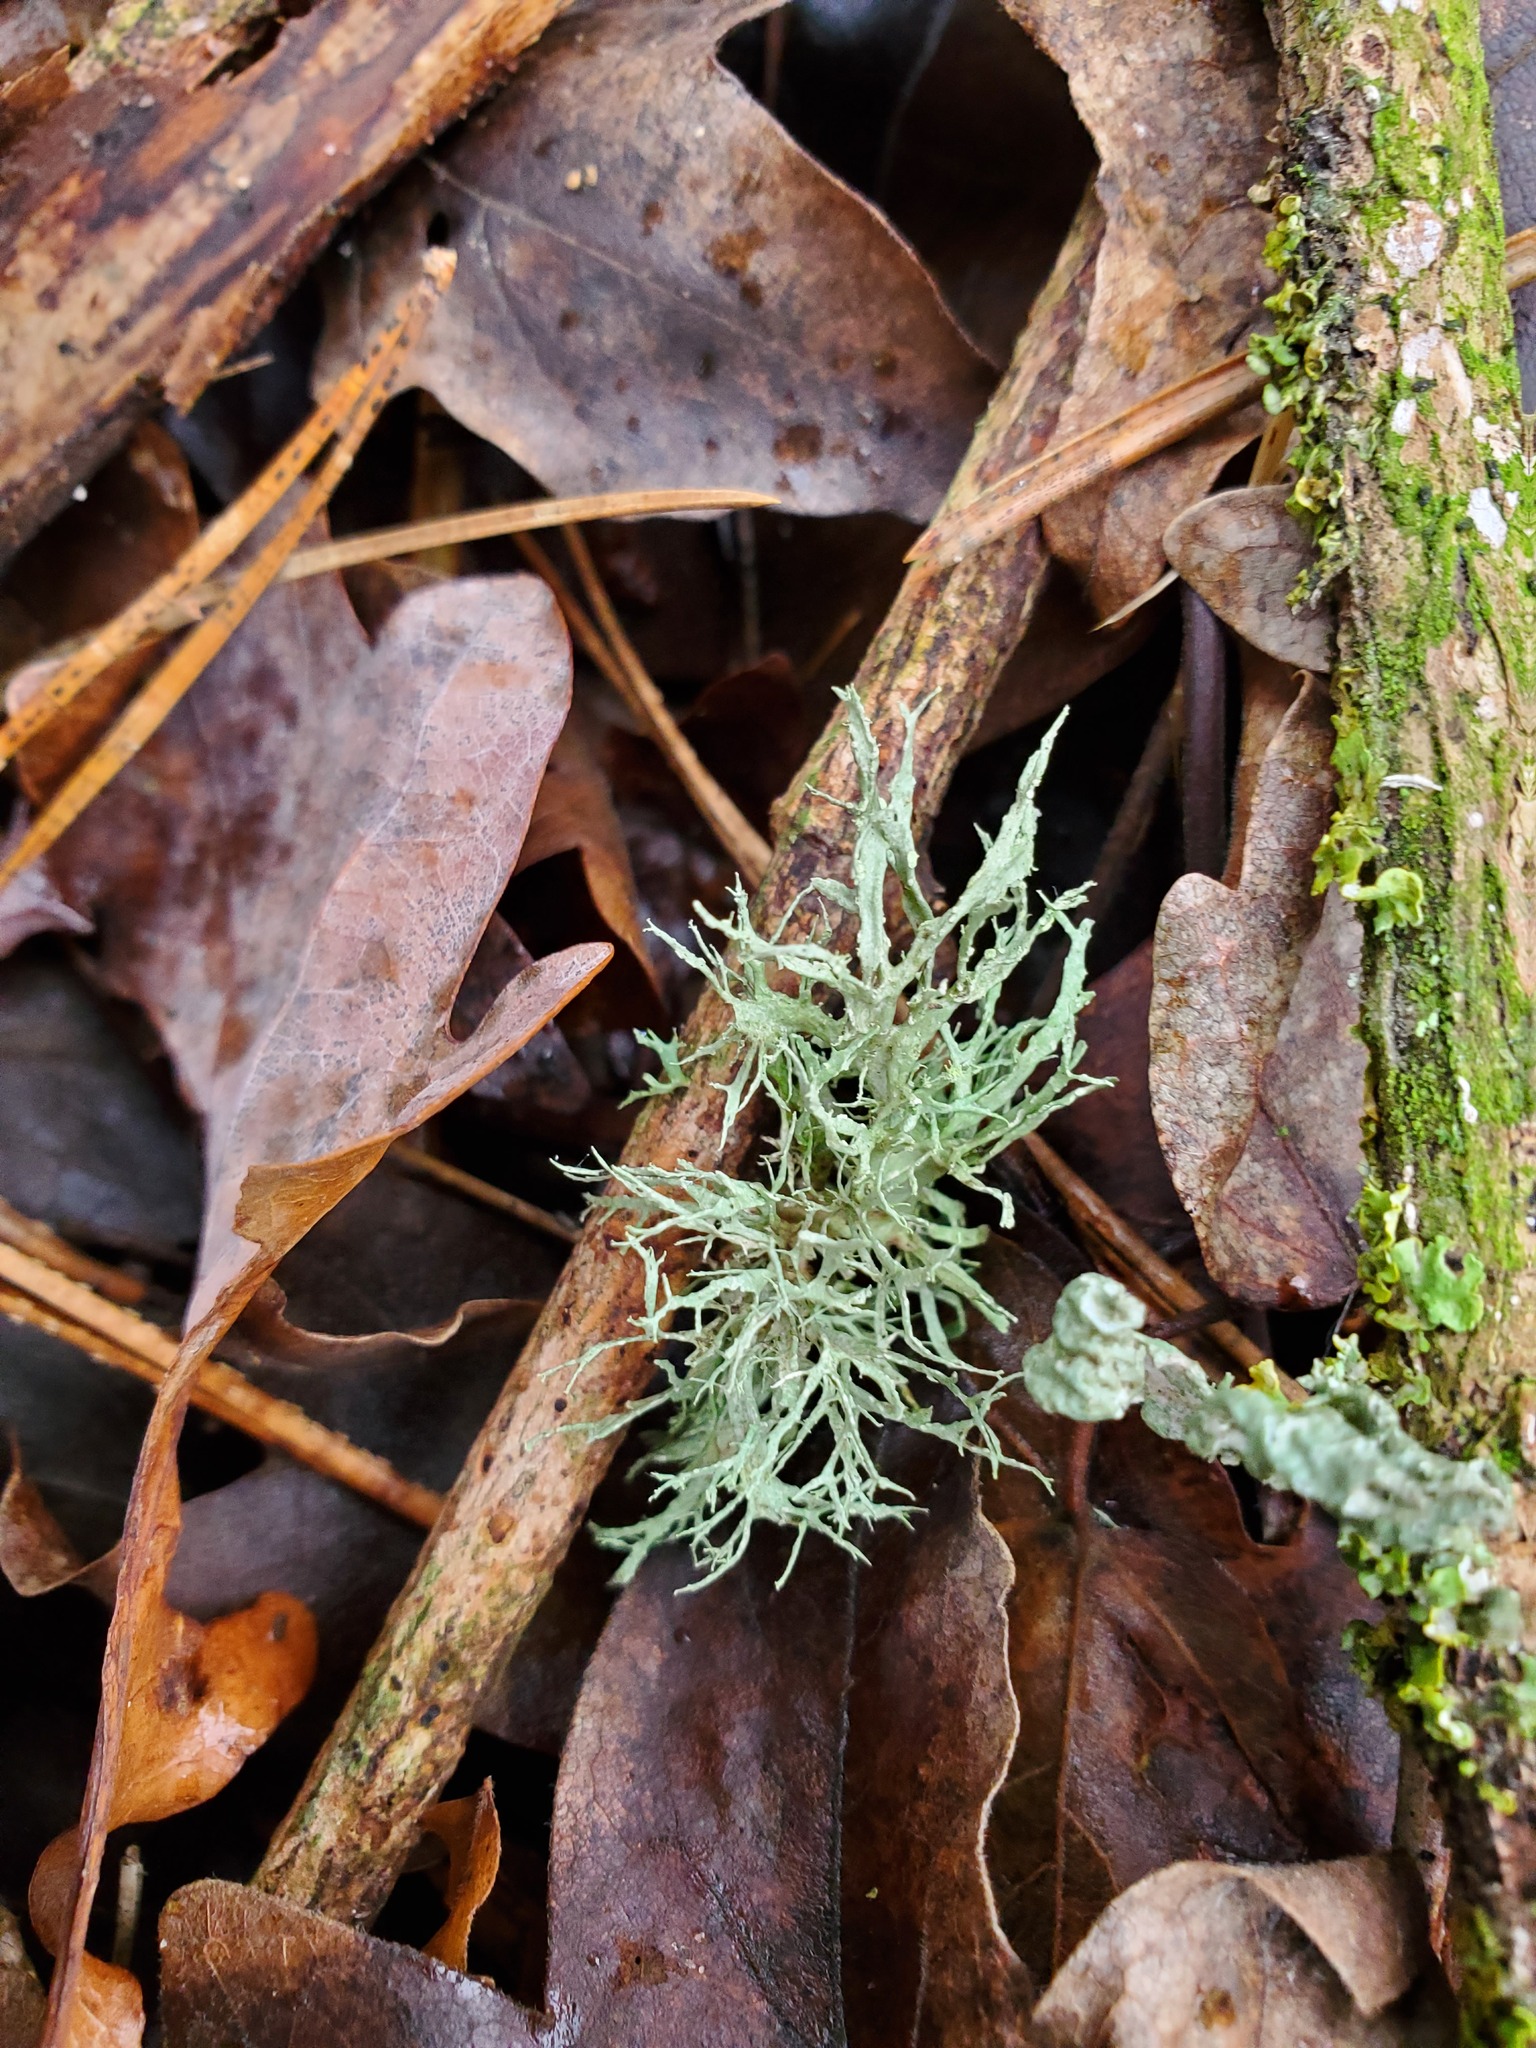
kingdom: Fungi
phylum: Ascomycota
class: Lecanoromycetes
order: Lecanorales
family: Ramalinaceae
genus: Ramalina
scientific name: Ramalina farinacea
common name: Farinose cartilage lichen
